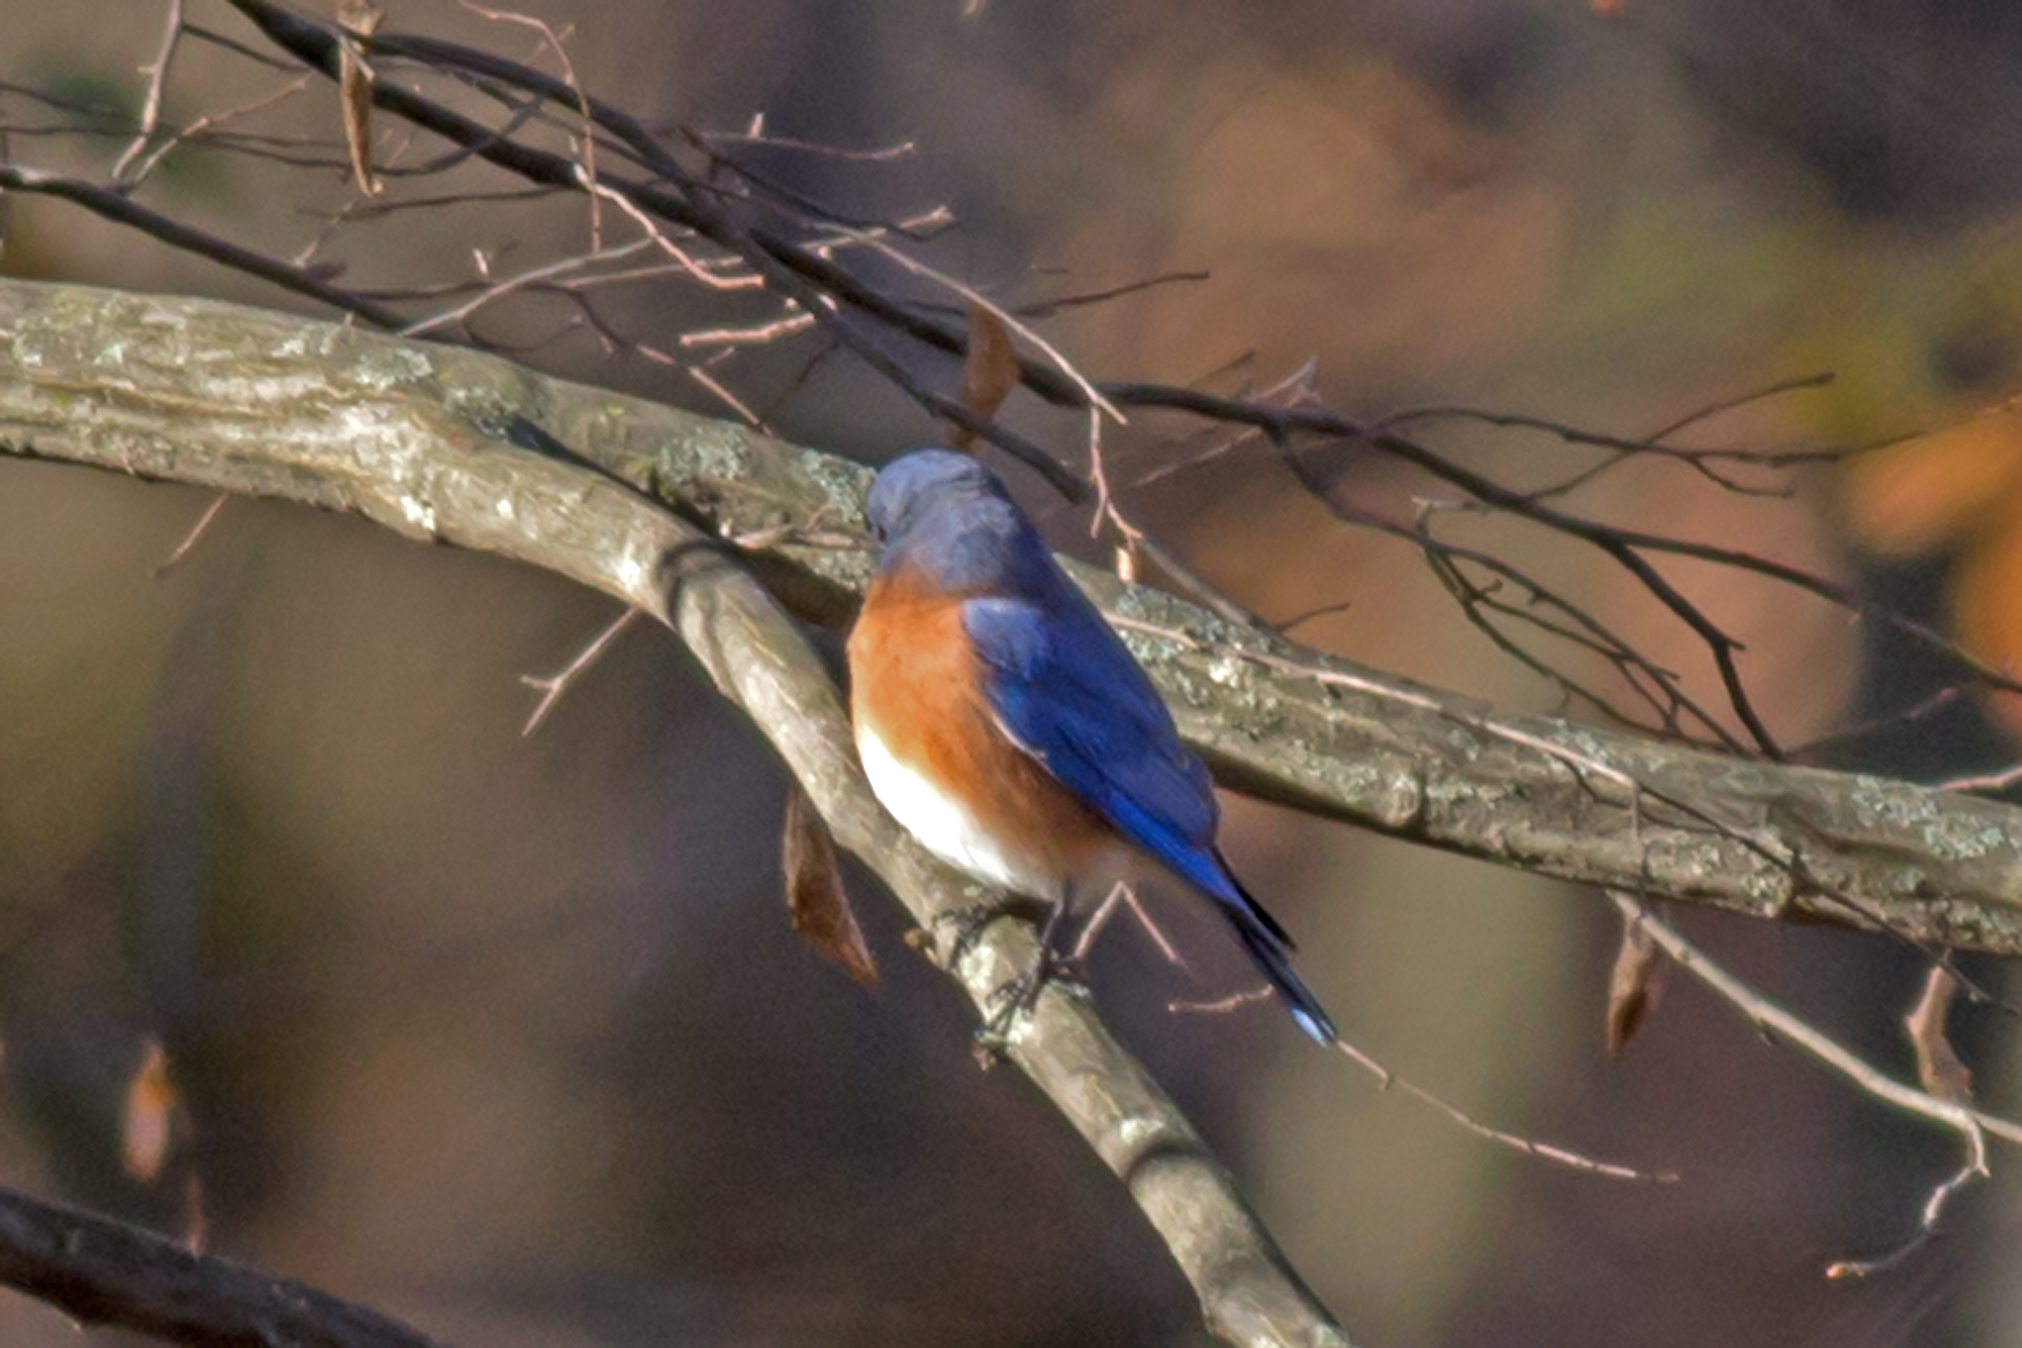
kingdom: Animalia
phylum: Chordata
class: Aves
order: Passeriformes
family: Turdidae
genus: Sialia
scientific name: Sialia sialis
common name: Eastern bluebird
